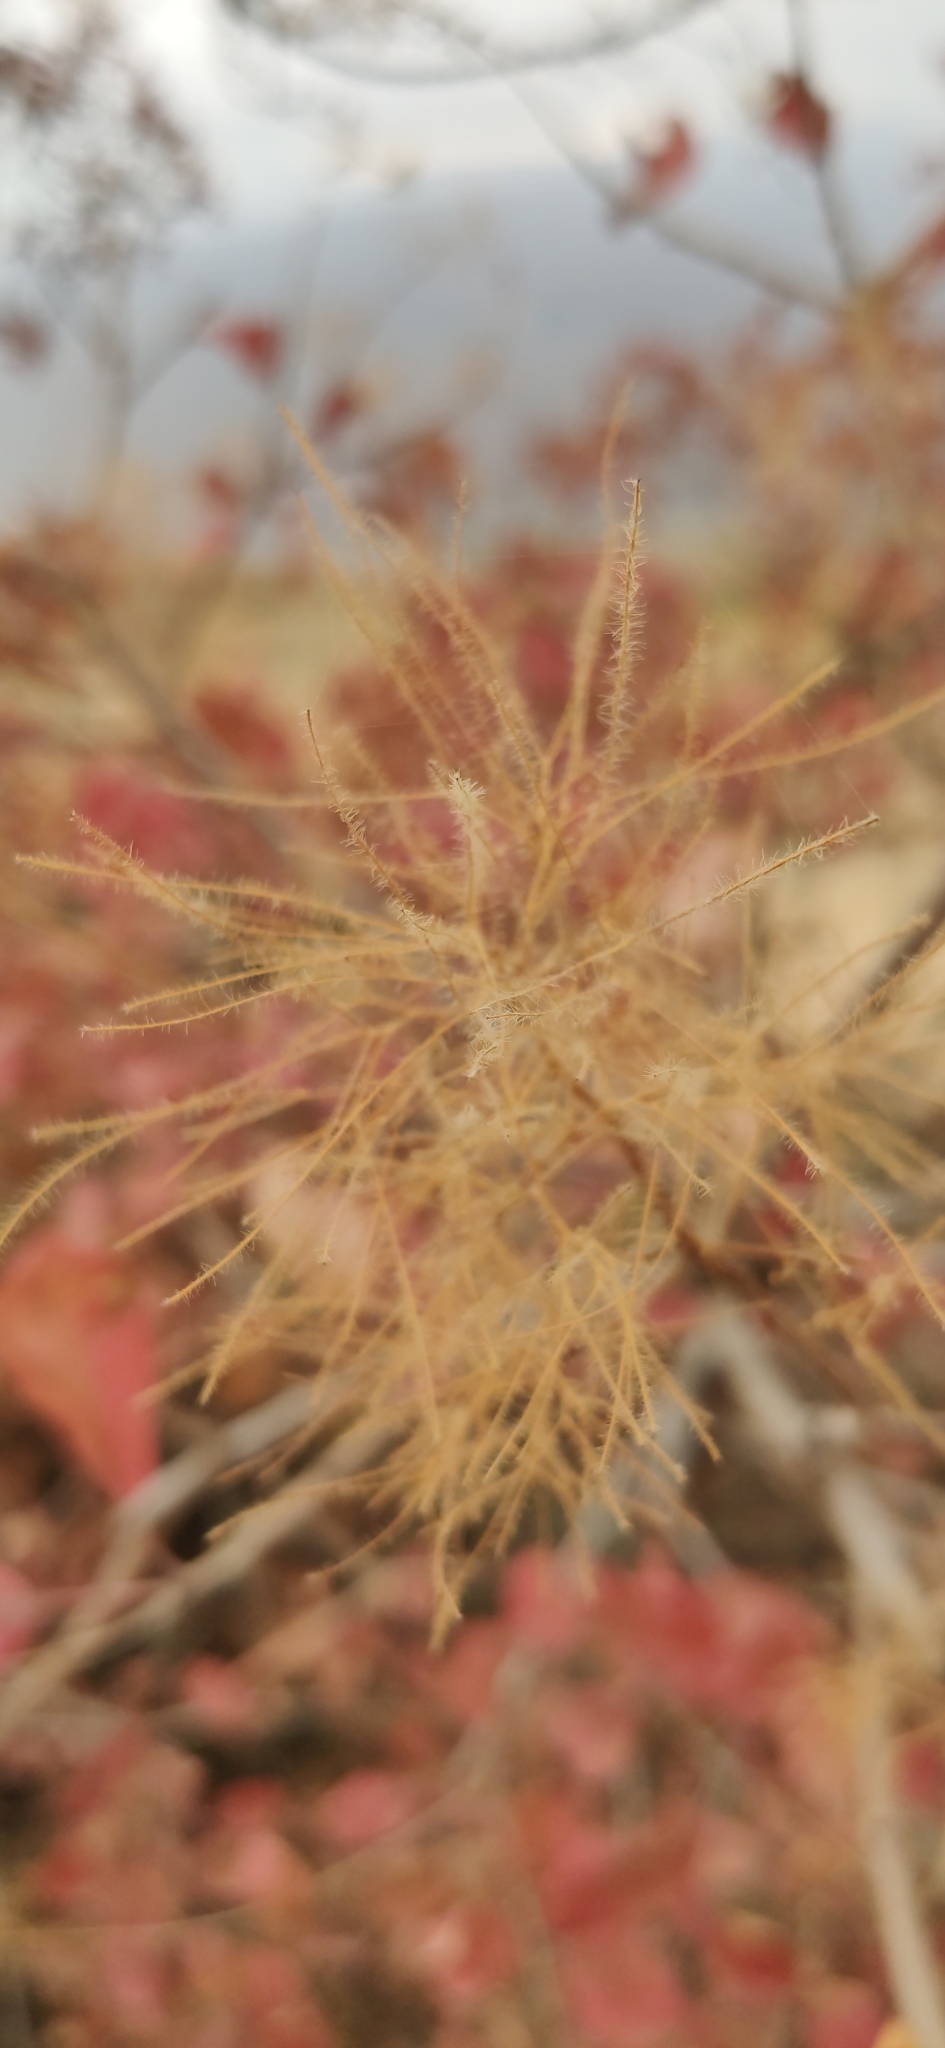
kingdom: Plantae
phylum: Tracheophyta
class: Magnoliopsida
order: Sapindales
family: Anacardiaceae
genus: Cotinus
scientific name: Cotinus coggygria
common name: Smoke-tree
